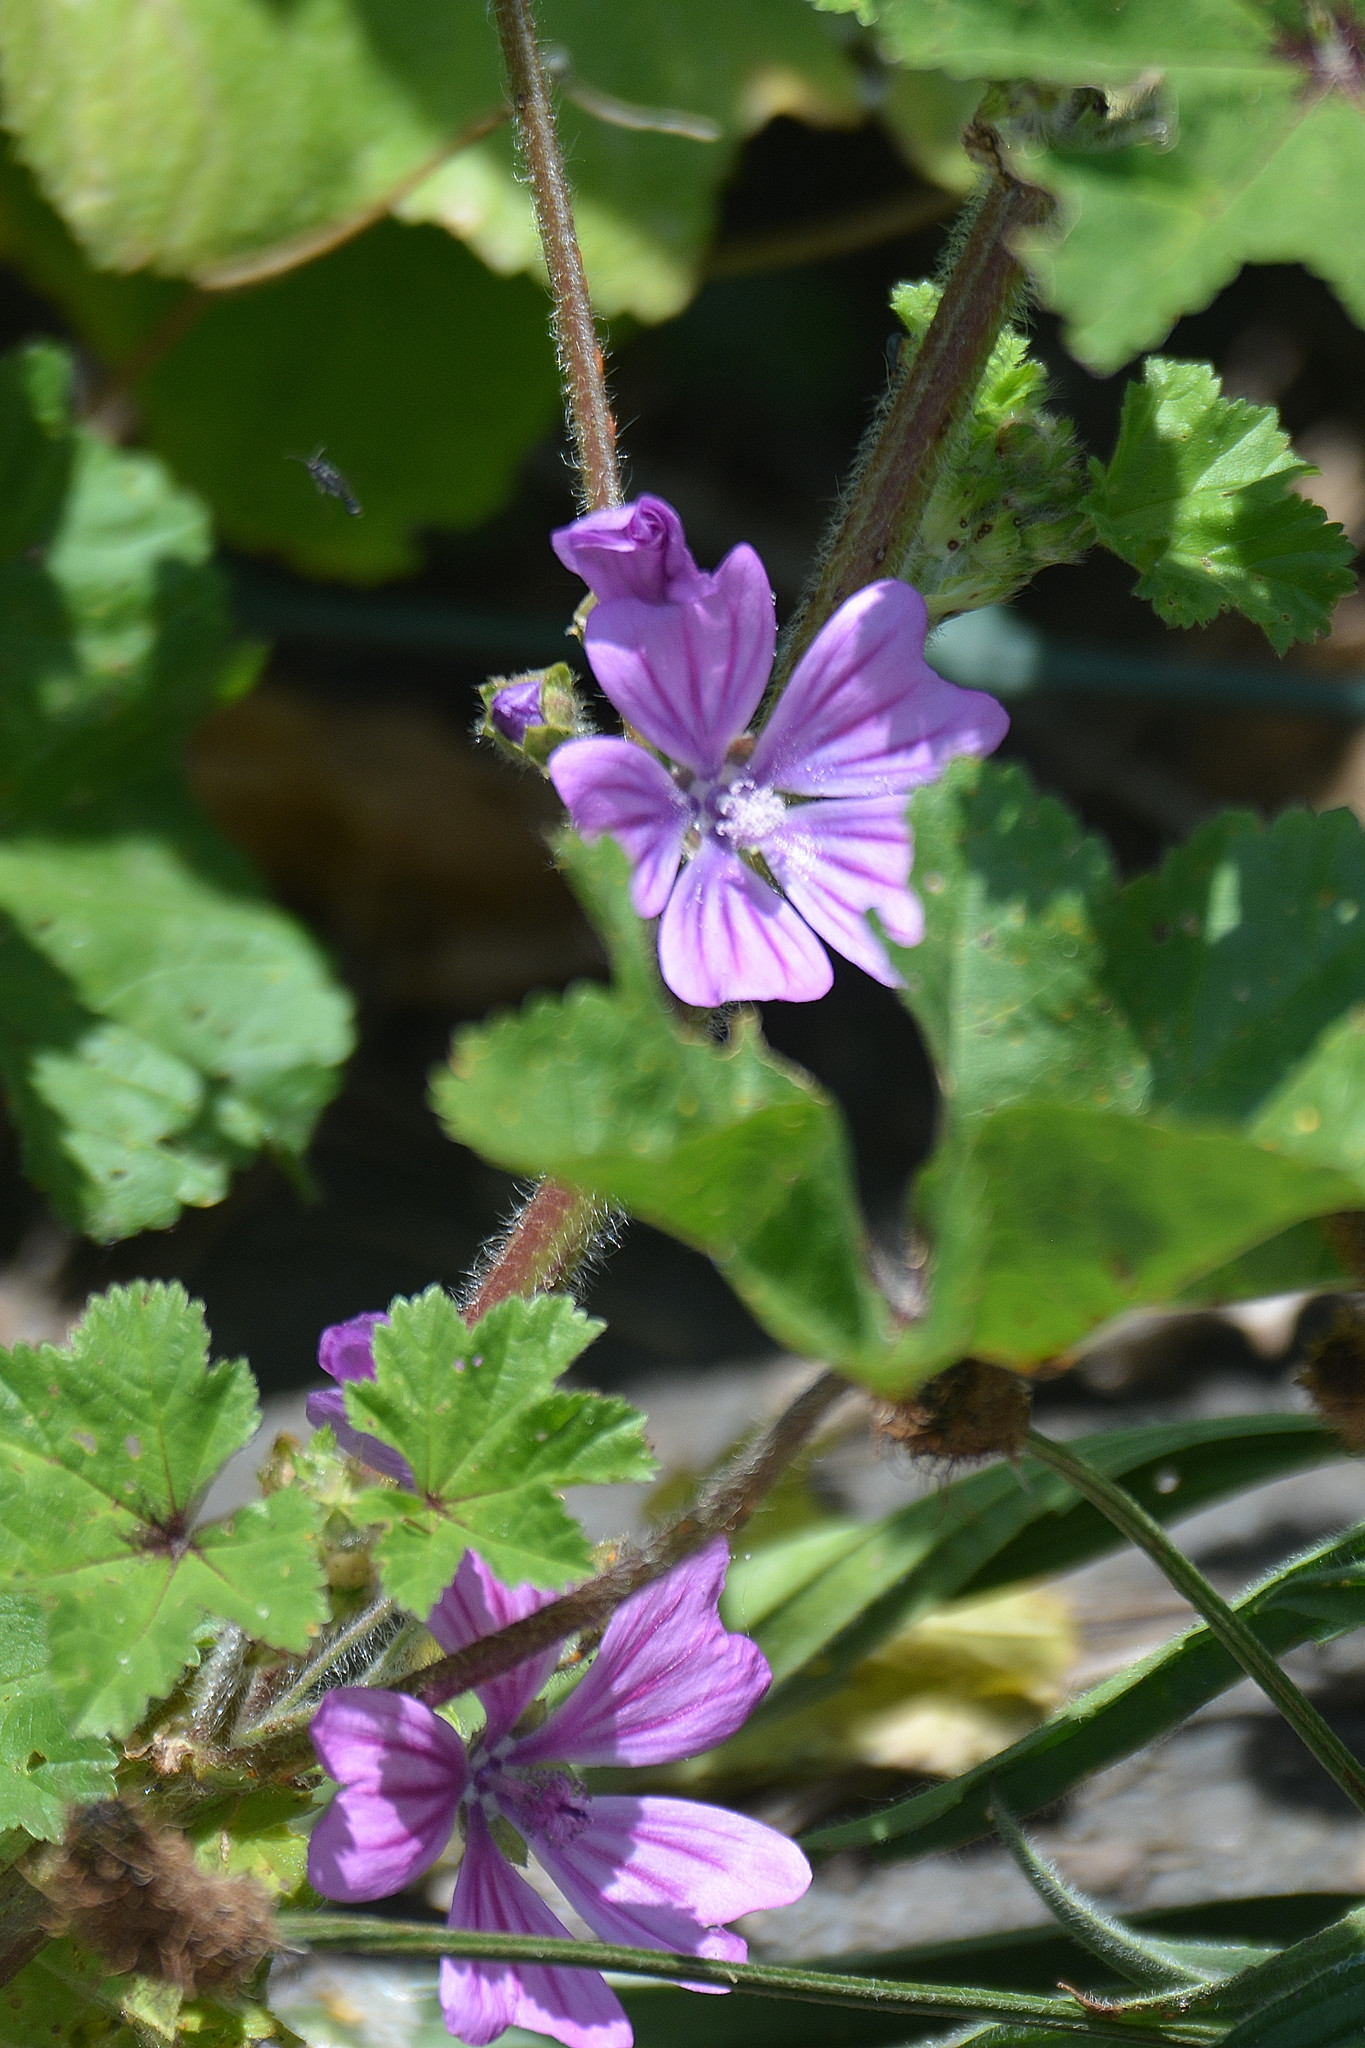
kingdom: Plantae
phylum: Tracheophyta
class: Magnoliopsida
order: Malvales
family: Malvaceae
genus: Malva
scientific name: Malva sylvestris
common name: Common mallow
